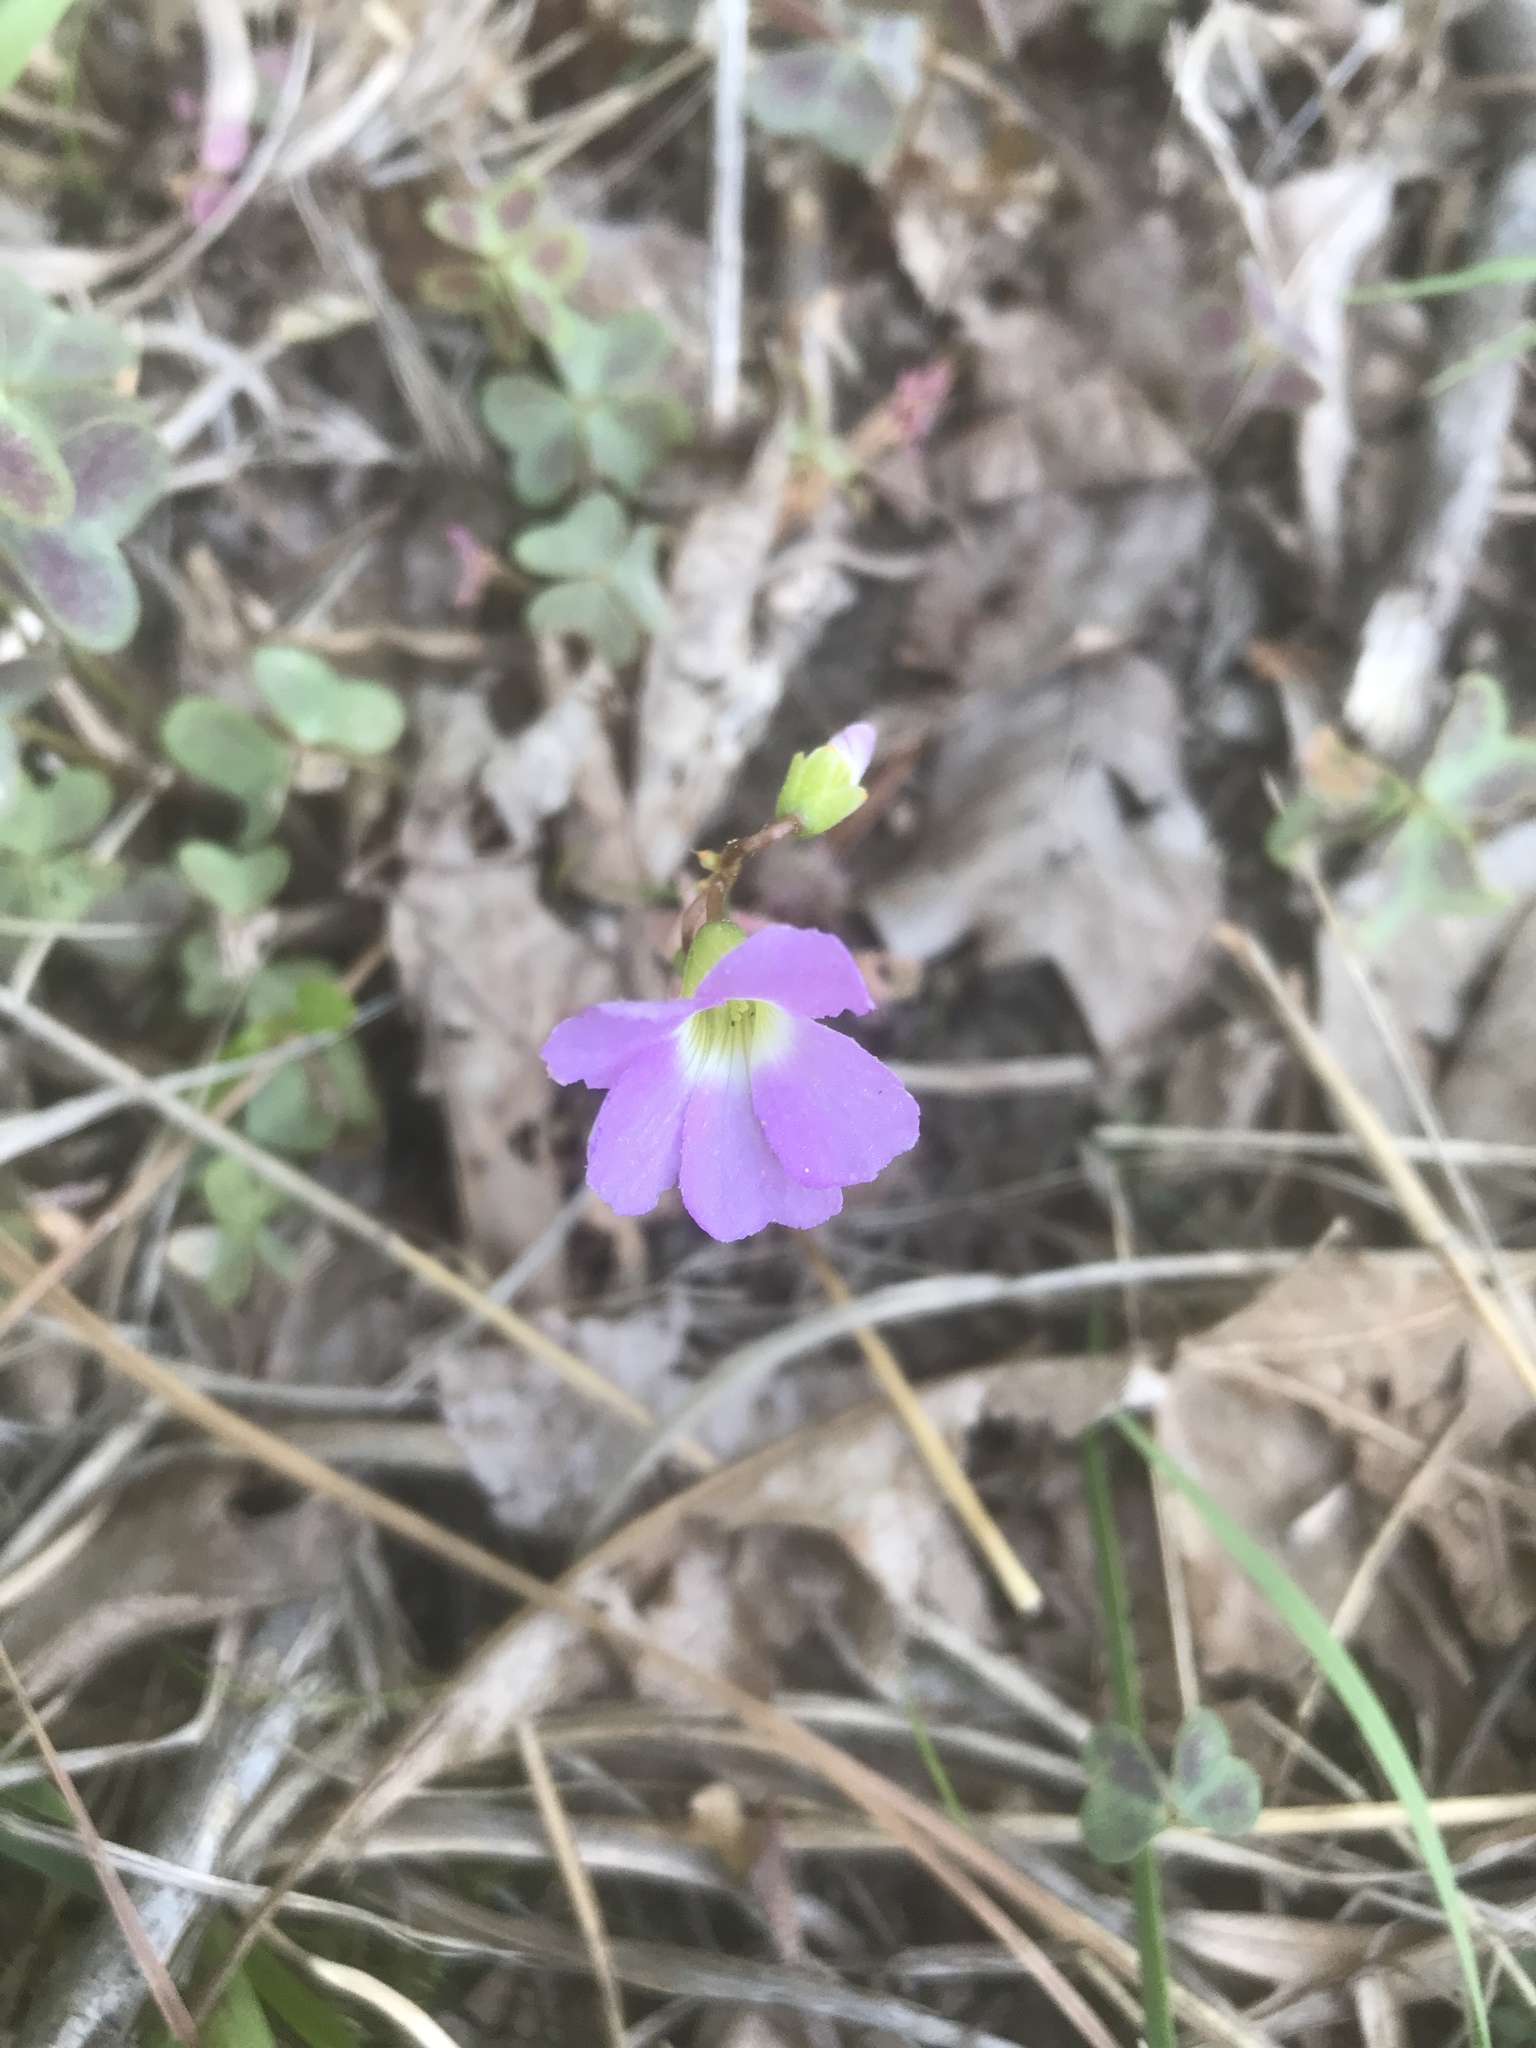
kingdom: Plantae
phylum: Tracheophyta
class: Magnoliopsida
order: Oxalidales
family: Oxalidaceae
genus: Oxalis
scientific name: Oxalis violacea
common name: Violet wood-sorrel
